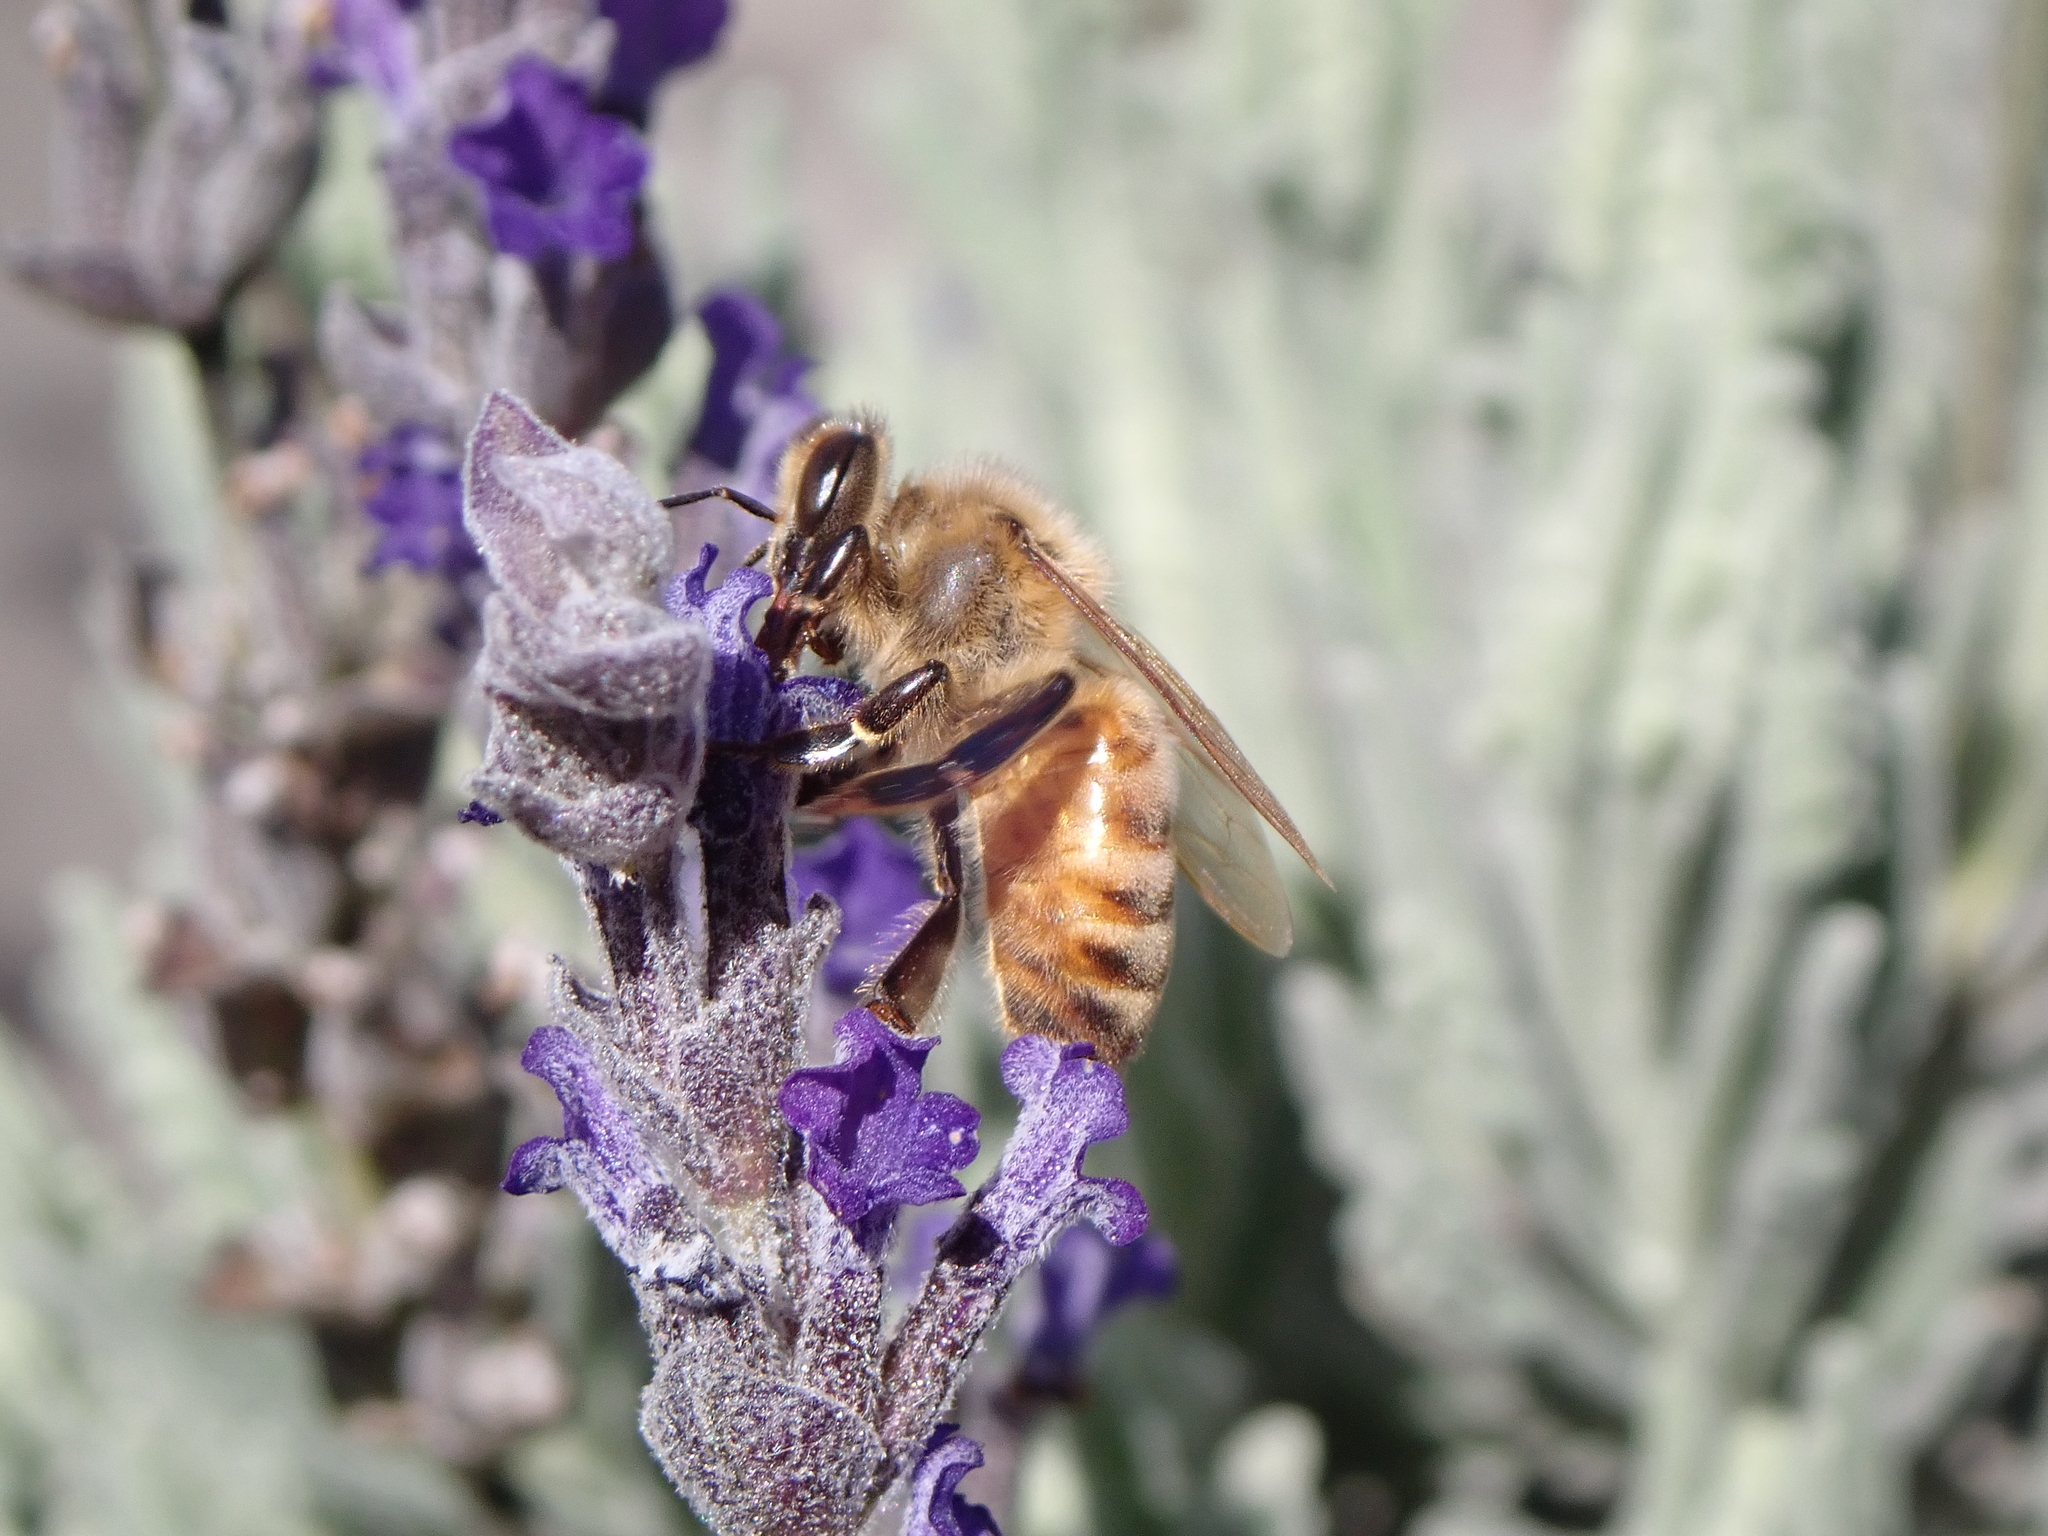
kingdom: Animalia
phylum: Arthropoda
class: Insecta
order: Hymenoptera
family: Apidae
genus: Apis
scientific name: Apis mellifera
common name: Honey bee
